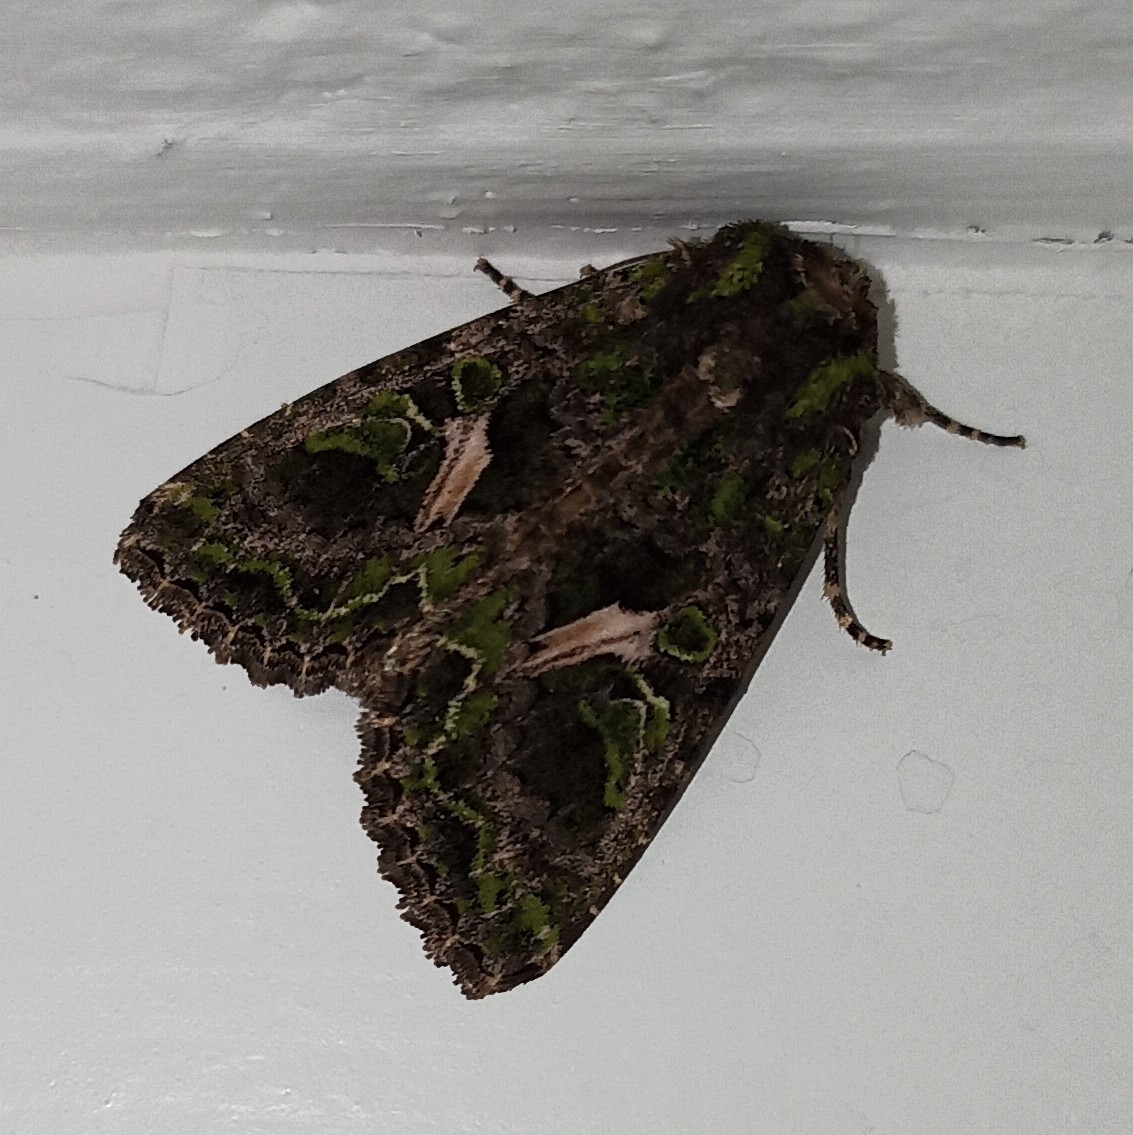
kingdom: Animalia
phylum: Arthropoda
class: Insecta
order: Lepidoptera
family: Noctuidae
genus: Trachea
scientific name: Trachea atriplicis
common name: Orache moth
